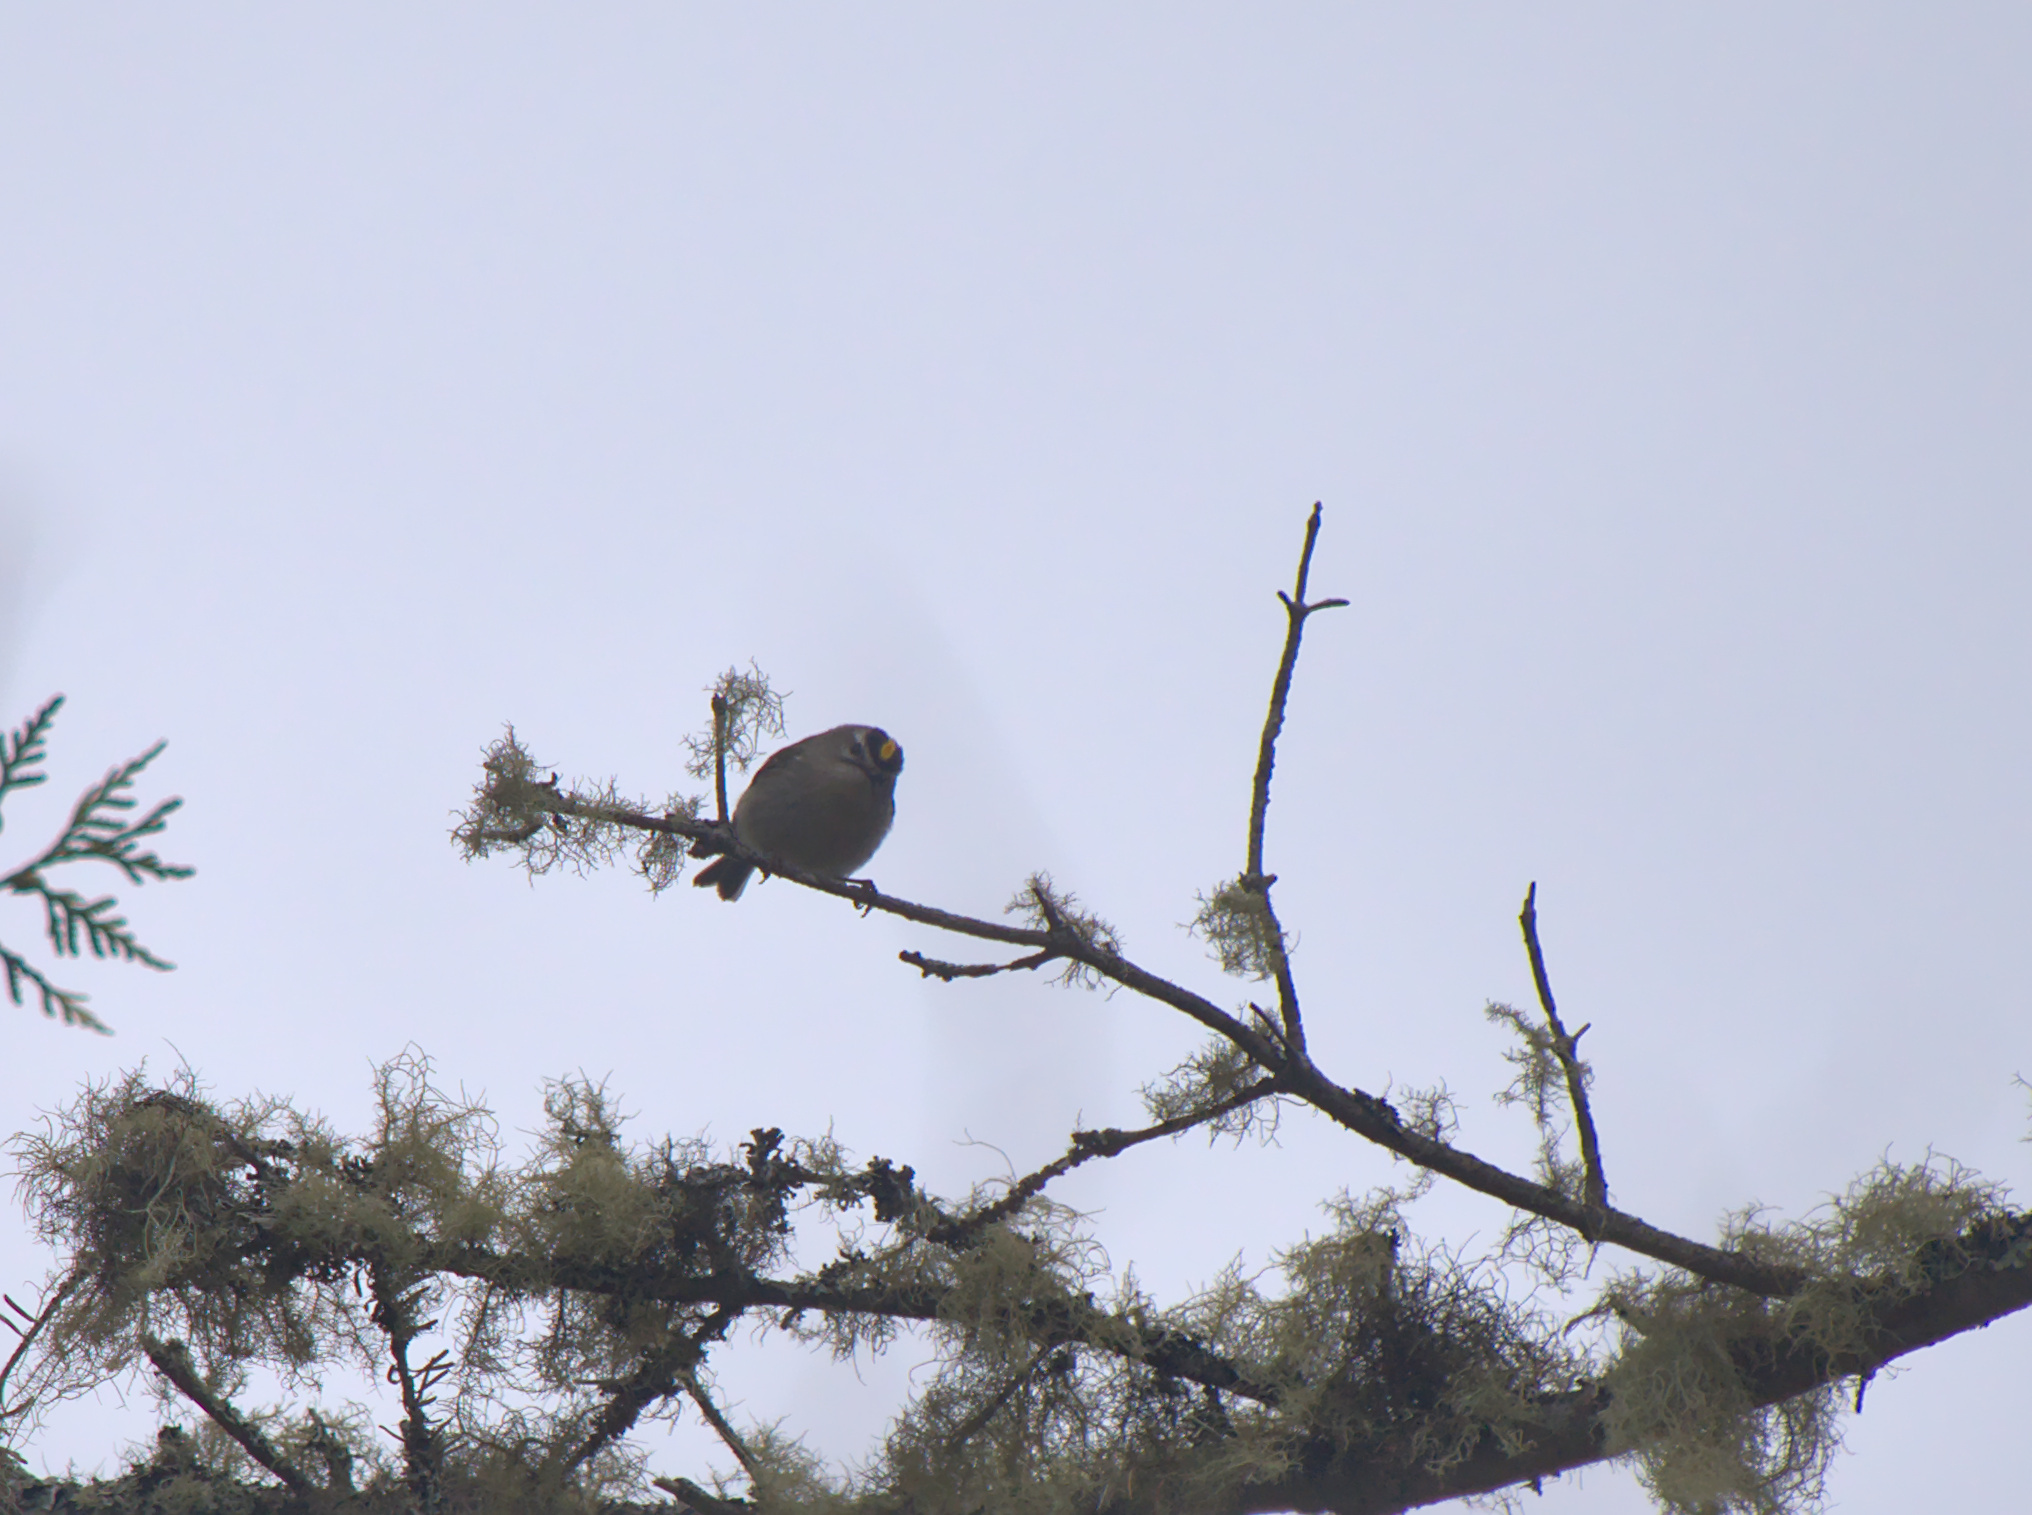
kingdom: Animalia
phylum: Chordata
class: Aves
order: Passeriformes
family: Regulidae
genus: Regulus
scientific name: Regulus satrapa
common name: Golden-crowned kinglet
